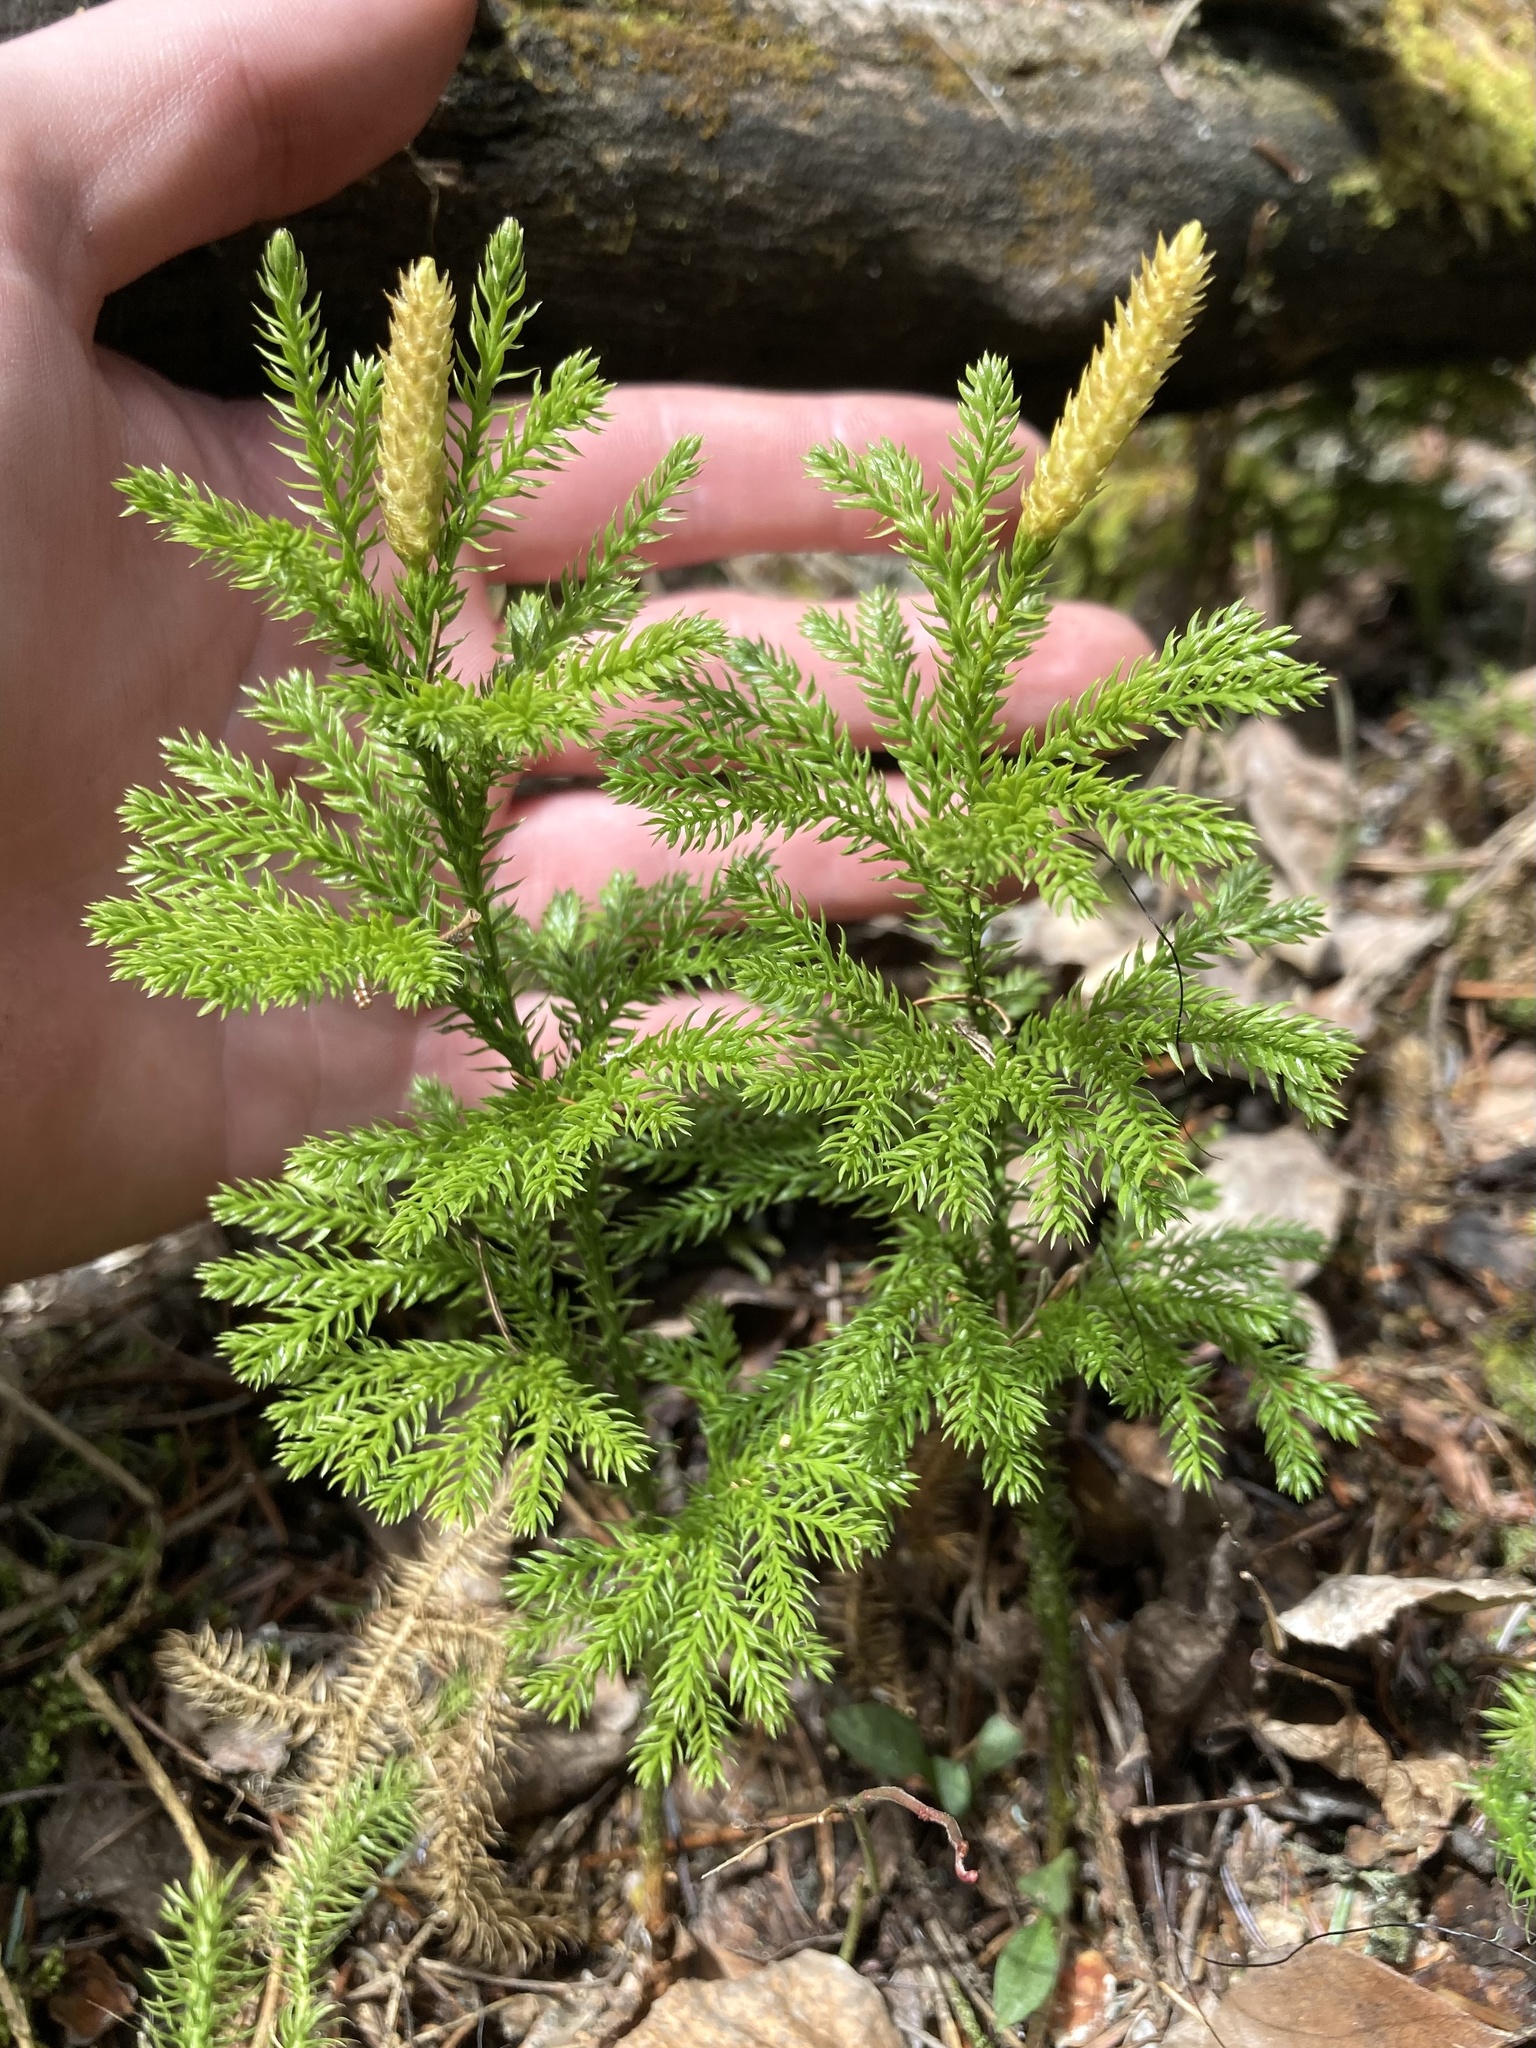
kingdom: Plantae
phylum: Tracheophyta
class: Lycopodiopsida
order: Lycopodiales
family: Lycopodiaceae
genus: Dendrolycopodium
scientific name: Dendrolycopodium dendroideum
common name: Northern tree-clubmoss
